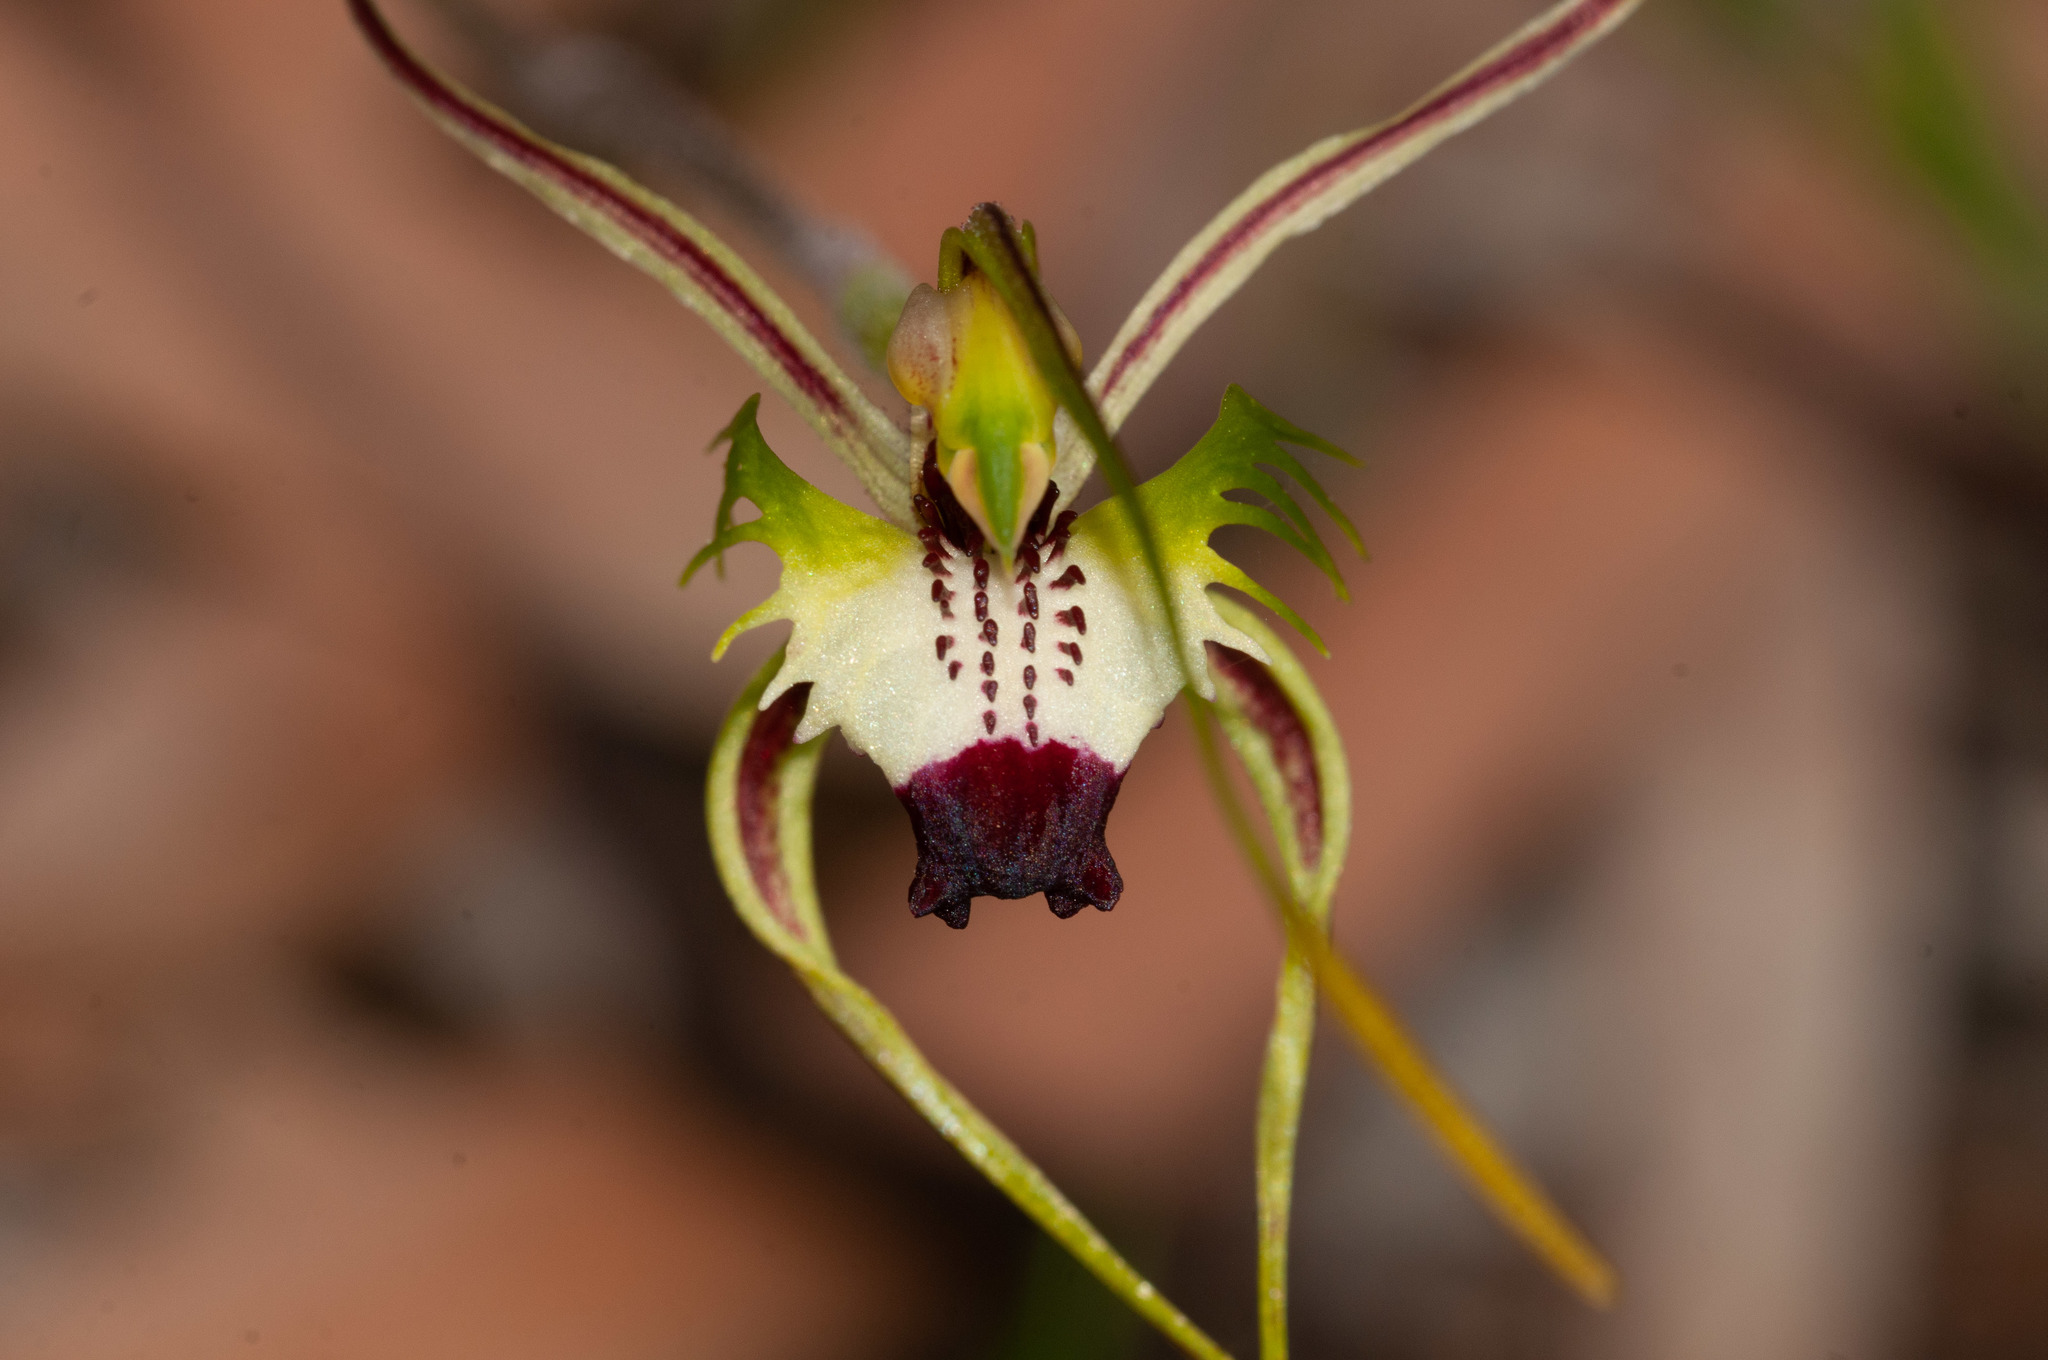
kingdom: Plantae
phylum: Tracheophyta
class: Liliopsida
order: Asparagales
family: Orchidaceae
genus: Caladenia
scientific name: Caladenia tentaculata
